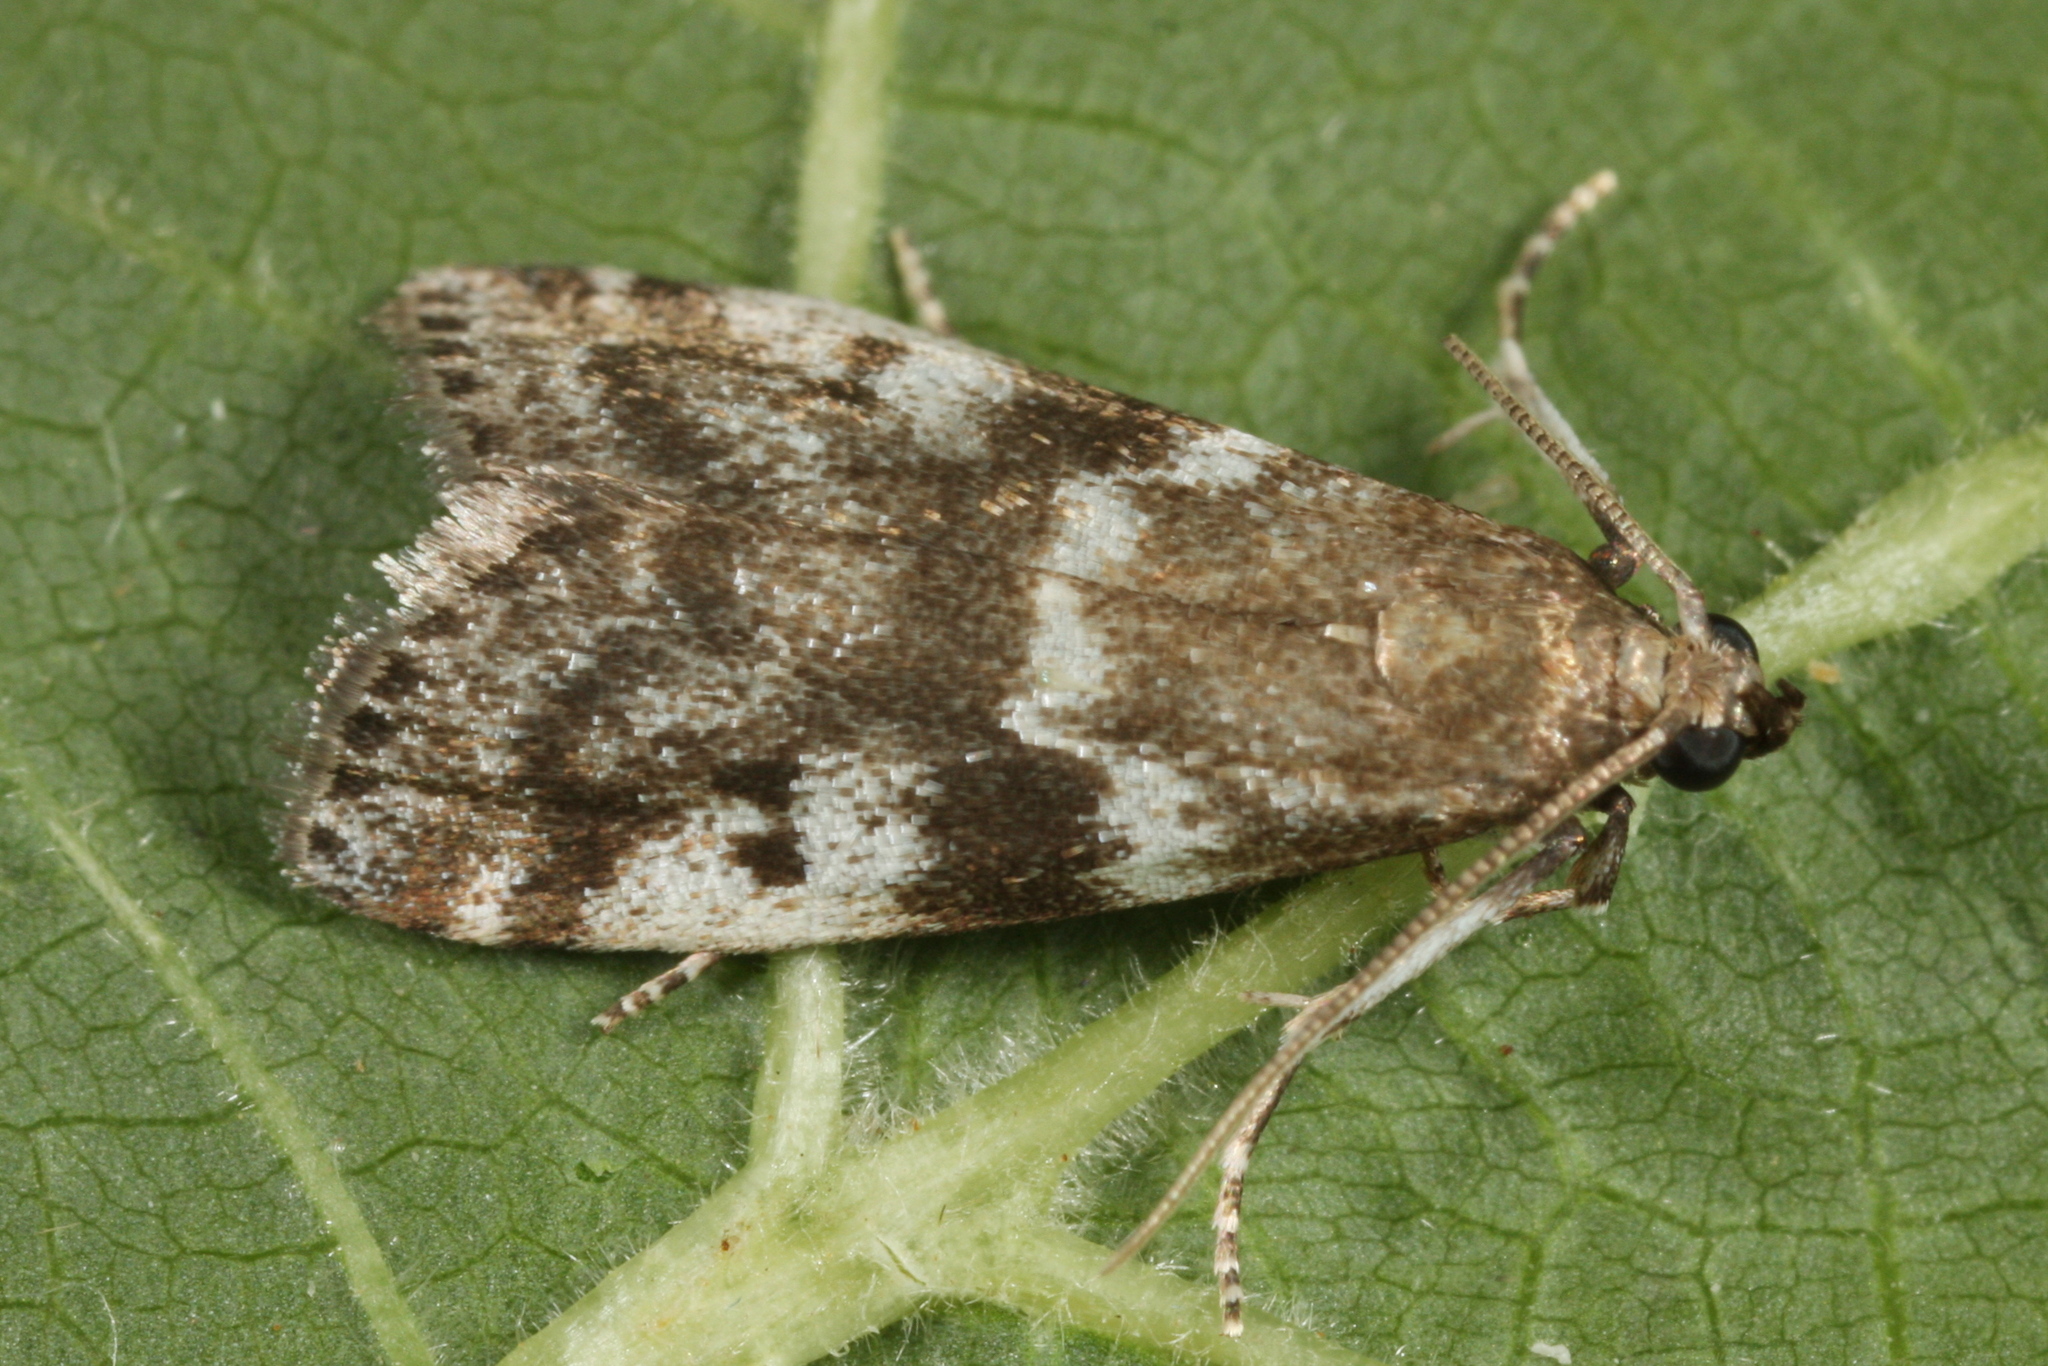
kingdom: Animalia
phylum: Arthropoda
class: Insecta
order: Lepidoptera
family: Pyralidae
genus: Assara
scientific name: Assara terebrella
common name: Dark spruce knot-horn
